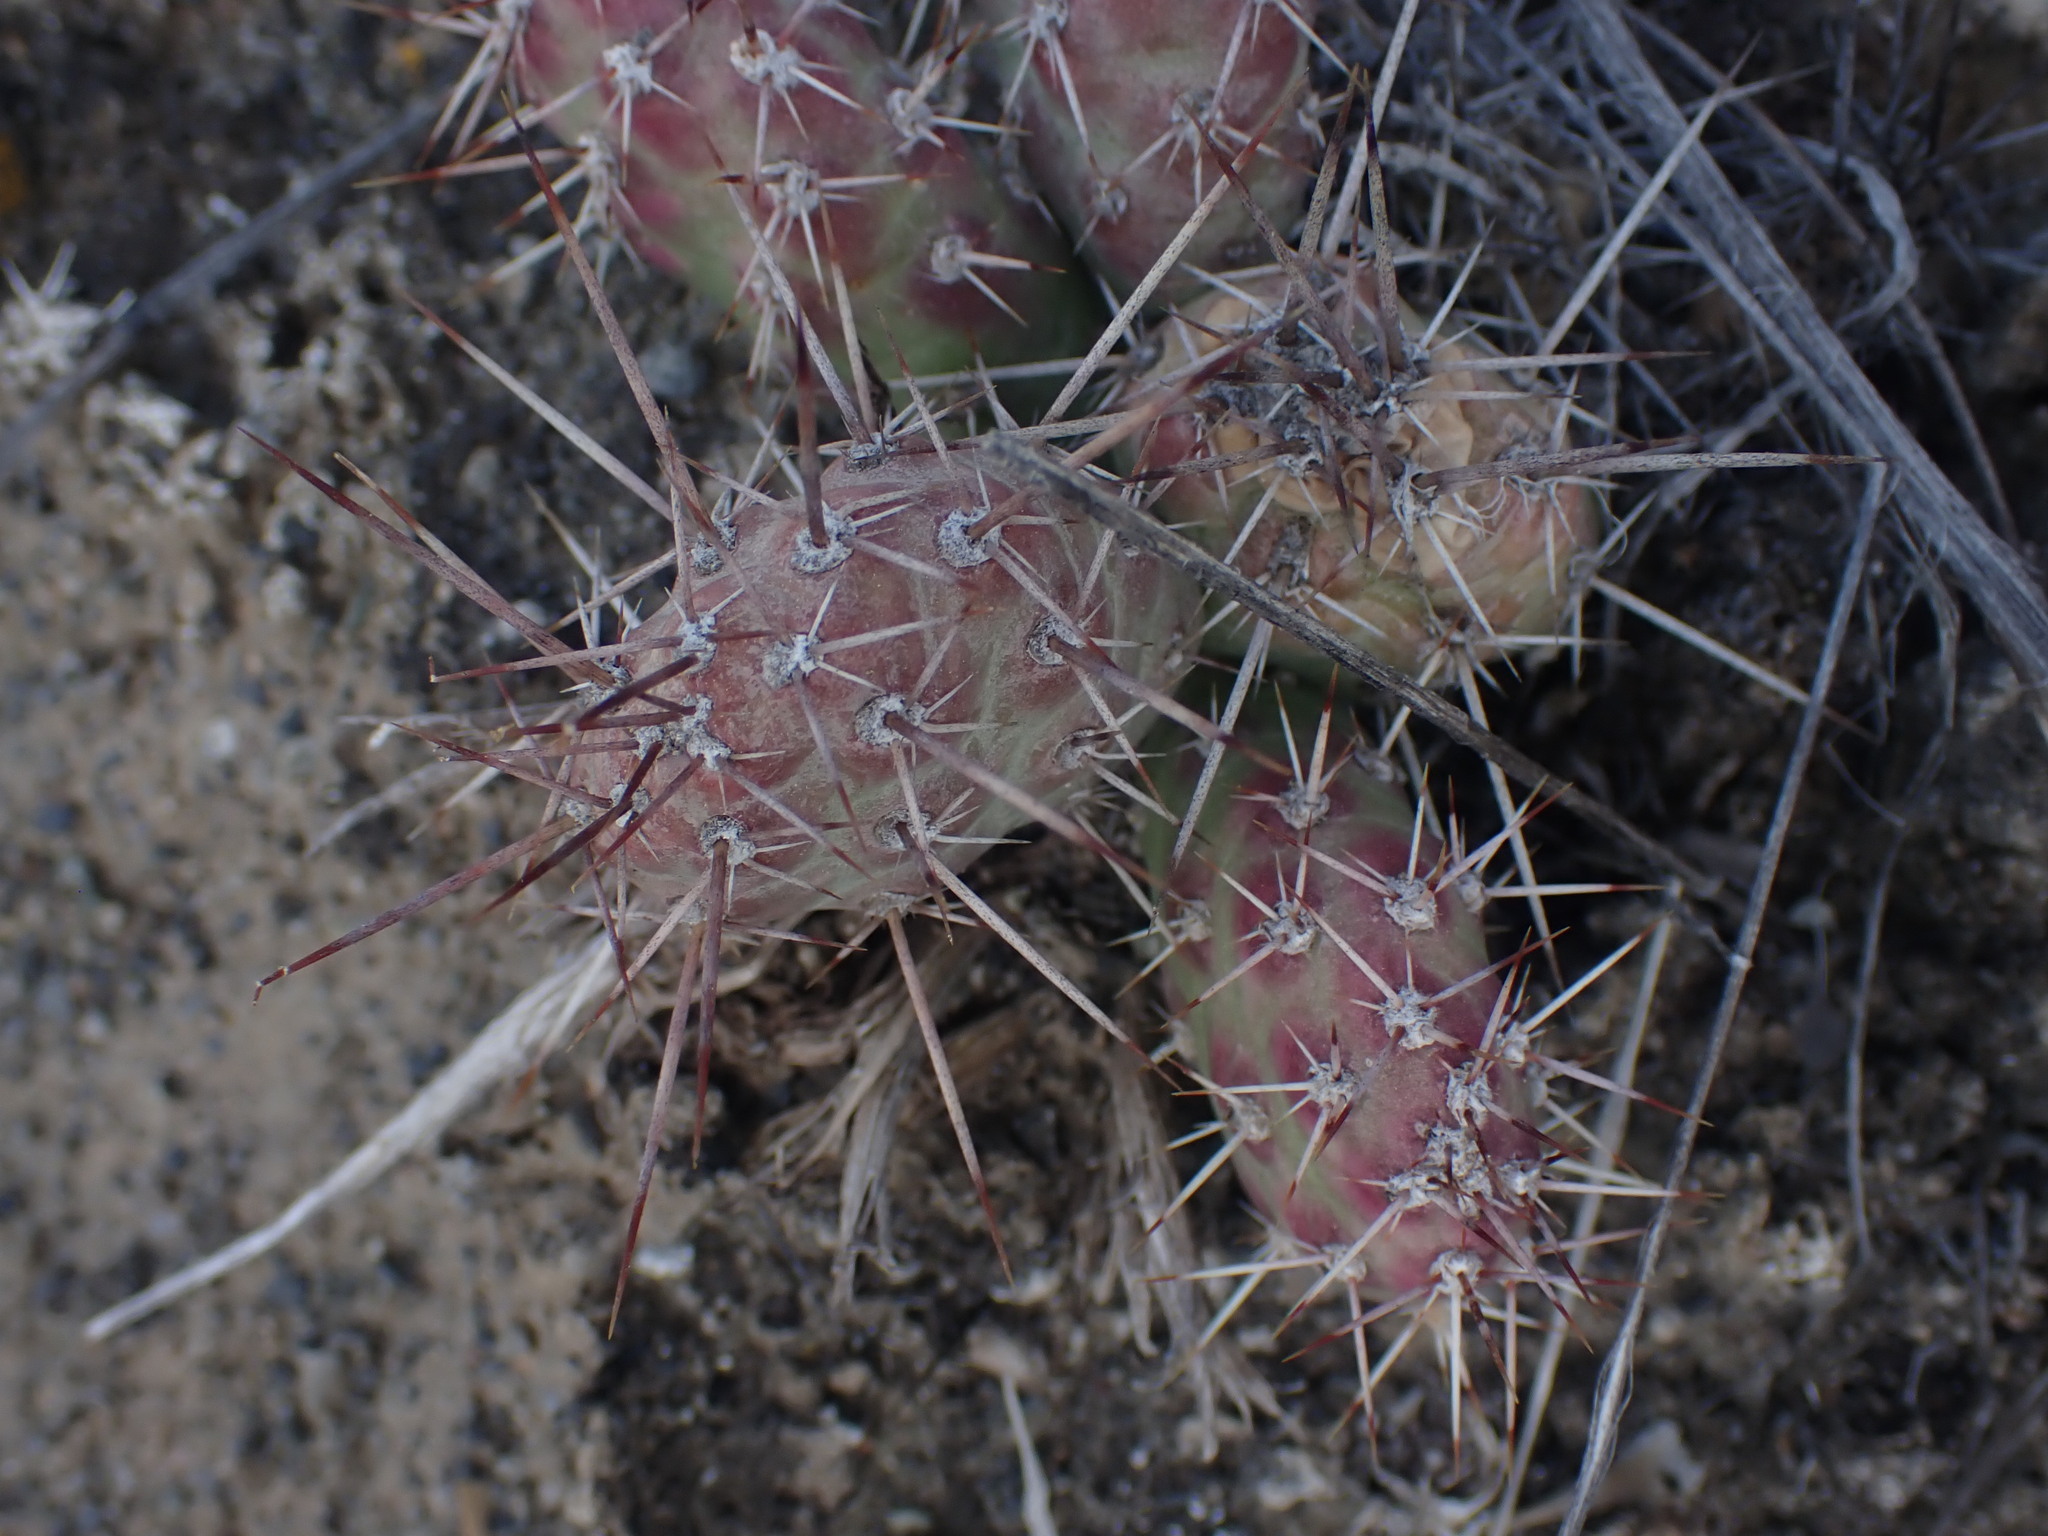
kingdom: Plantae
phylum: Tracheophyta
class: Magnoliopsida
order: Caryophyllales
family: Cactaceae
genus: Opuntia
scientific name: Opuntia fragilis
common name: Brittle cactus
